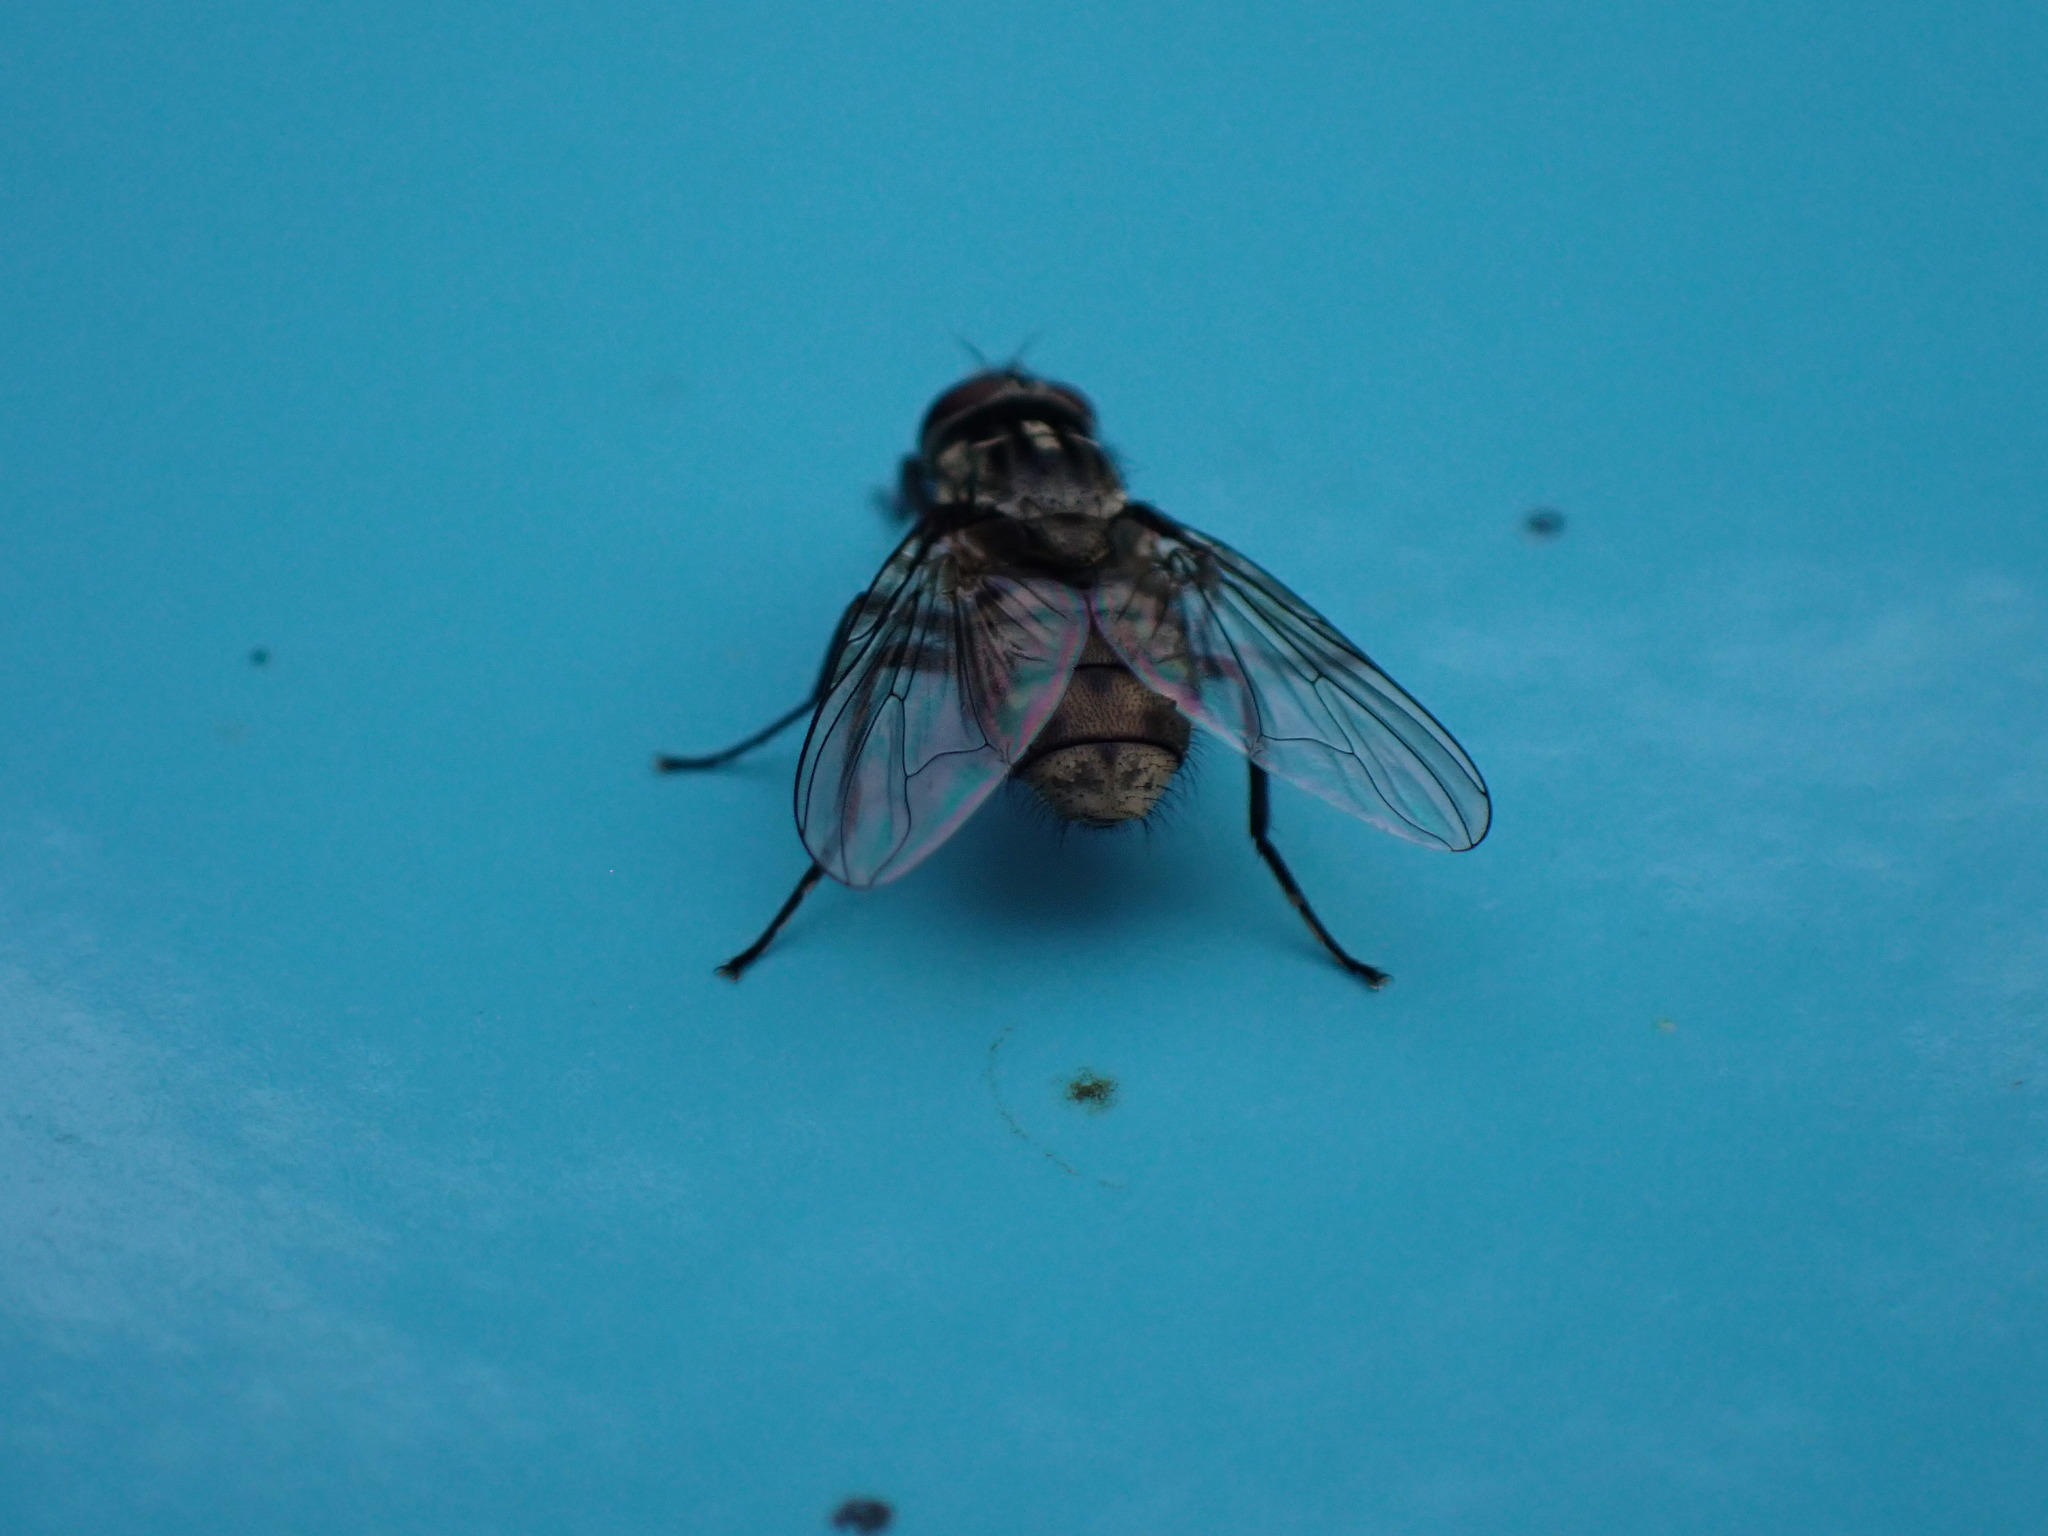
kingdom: Animalia
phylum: Arthropoda
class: Insecta
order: Diptera
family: Muscidae
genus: Stomoxys
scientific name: Stomoxys calcitrans
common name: Stable fly
